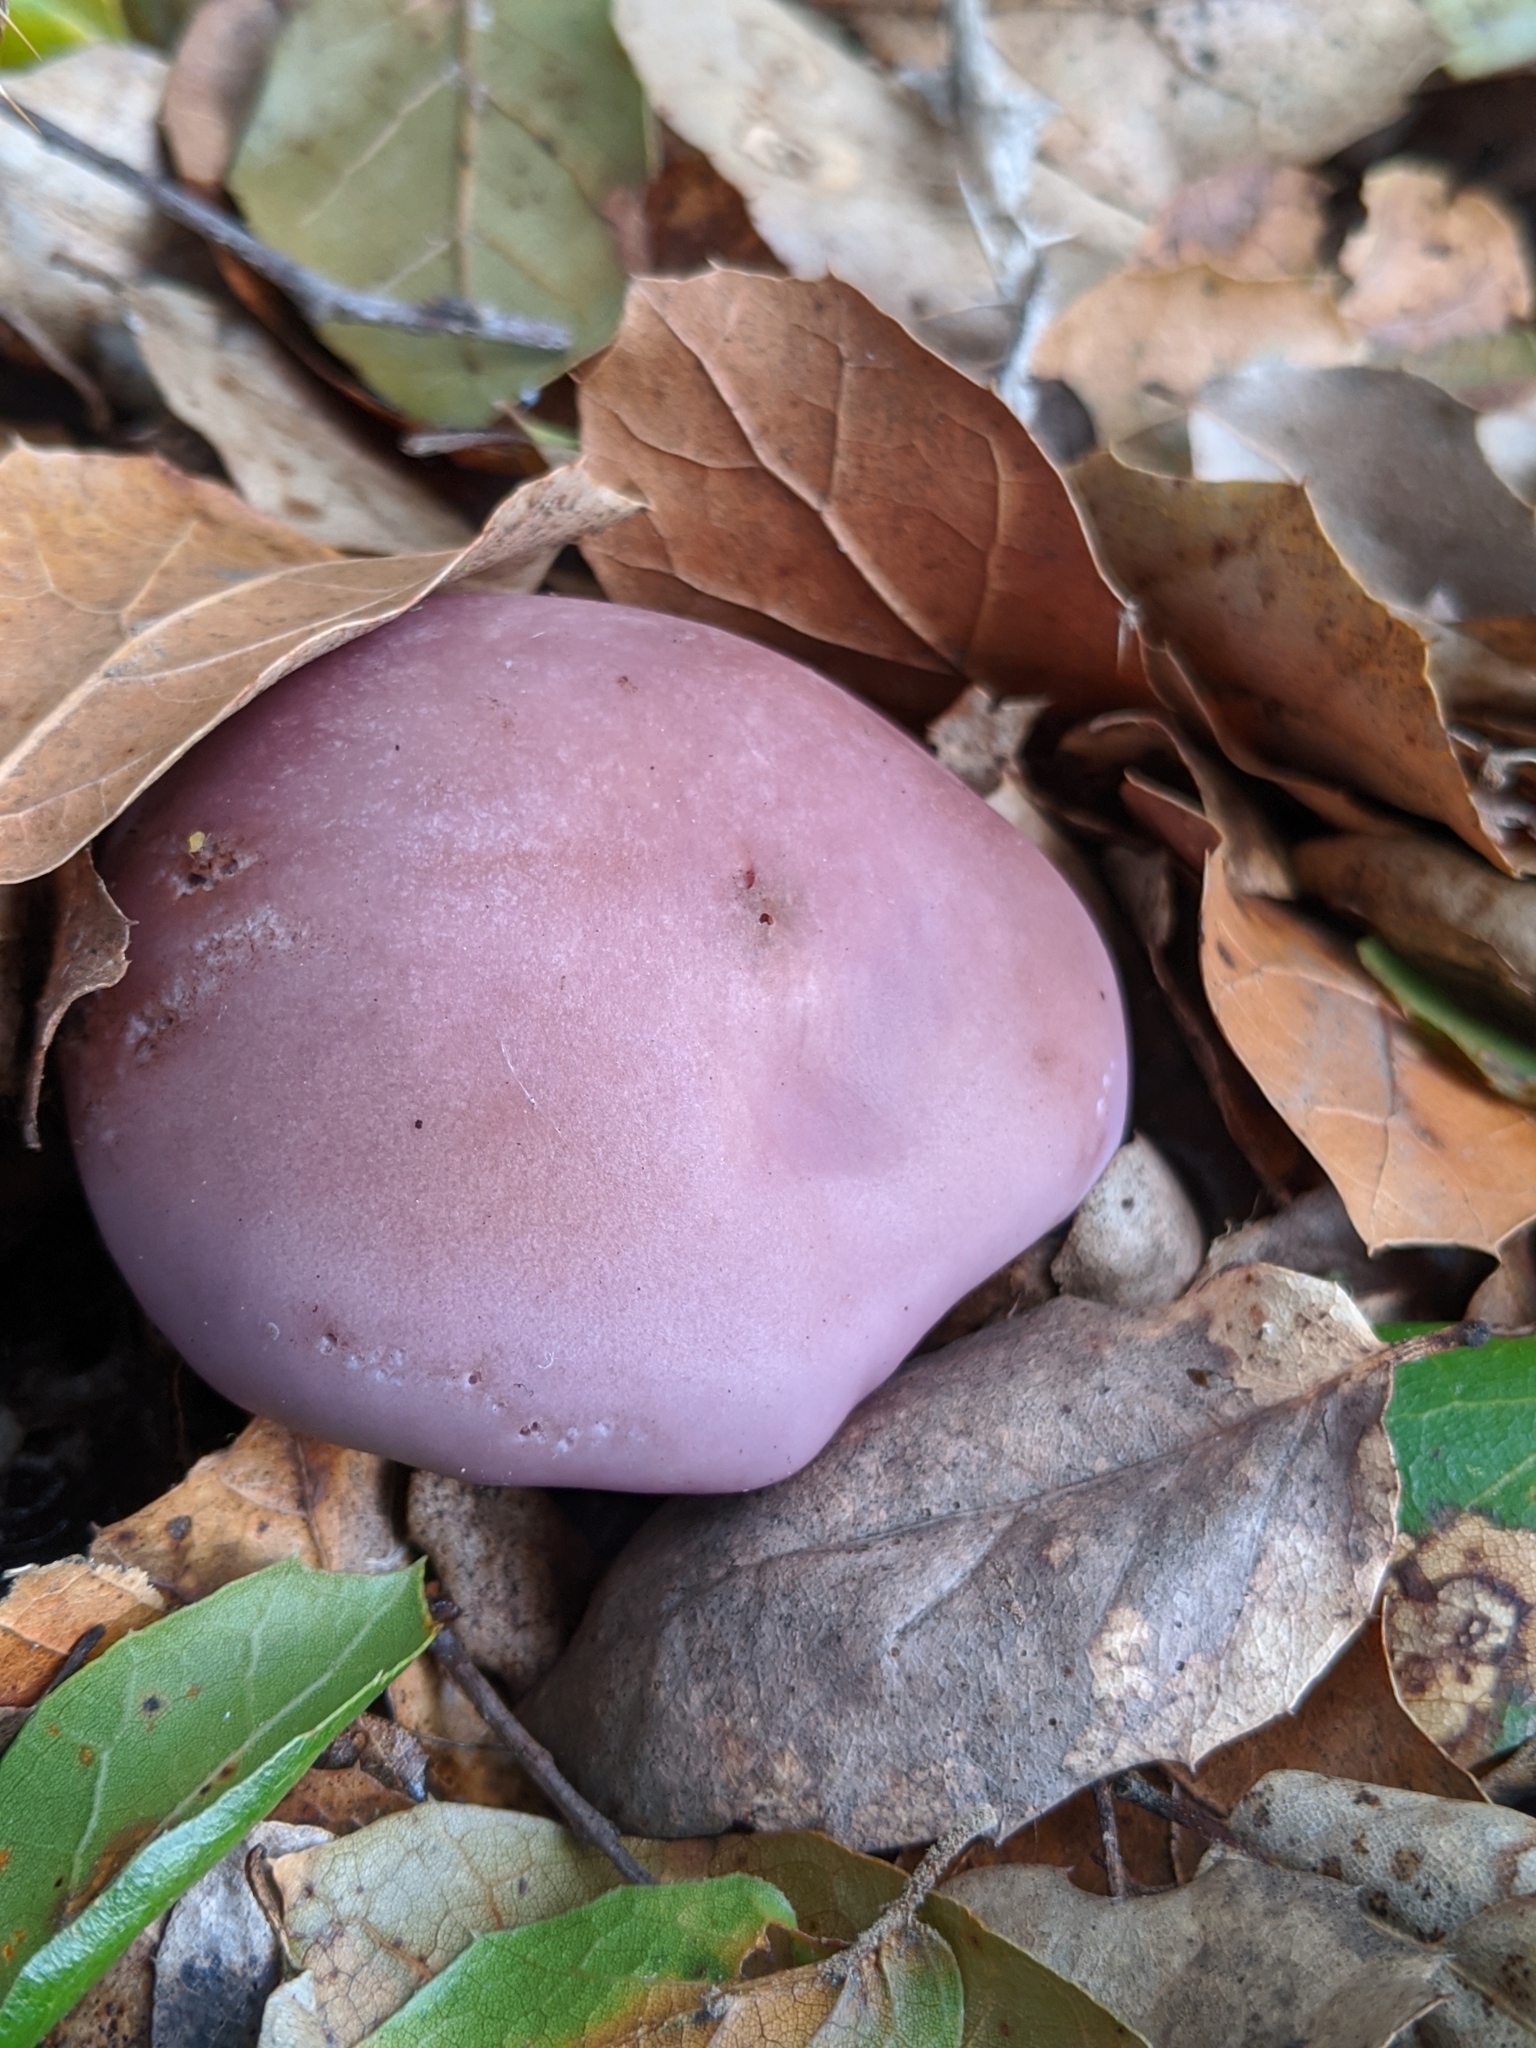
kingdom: Fungi
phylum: Basidiomycota
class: Agaricomycetes
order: Agaricales
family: Tricholomataceae
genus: Collybia
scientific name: Collybia
